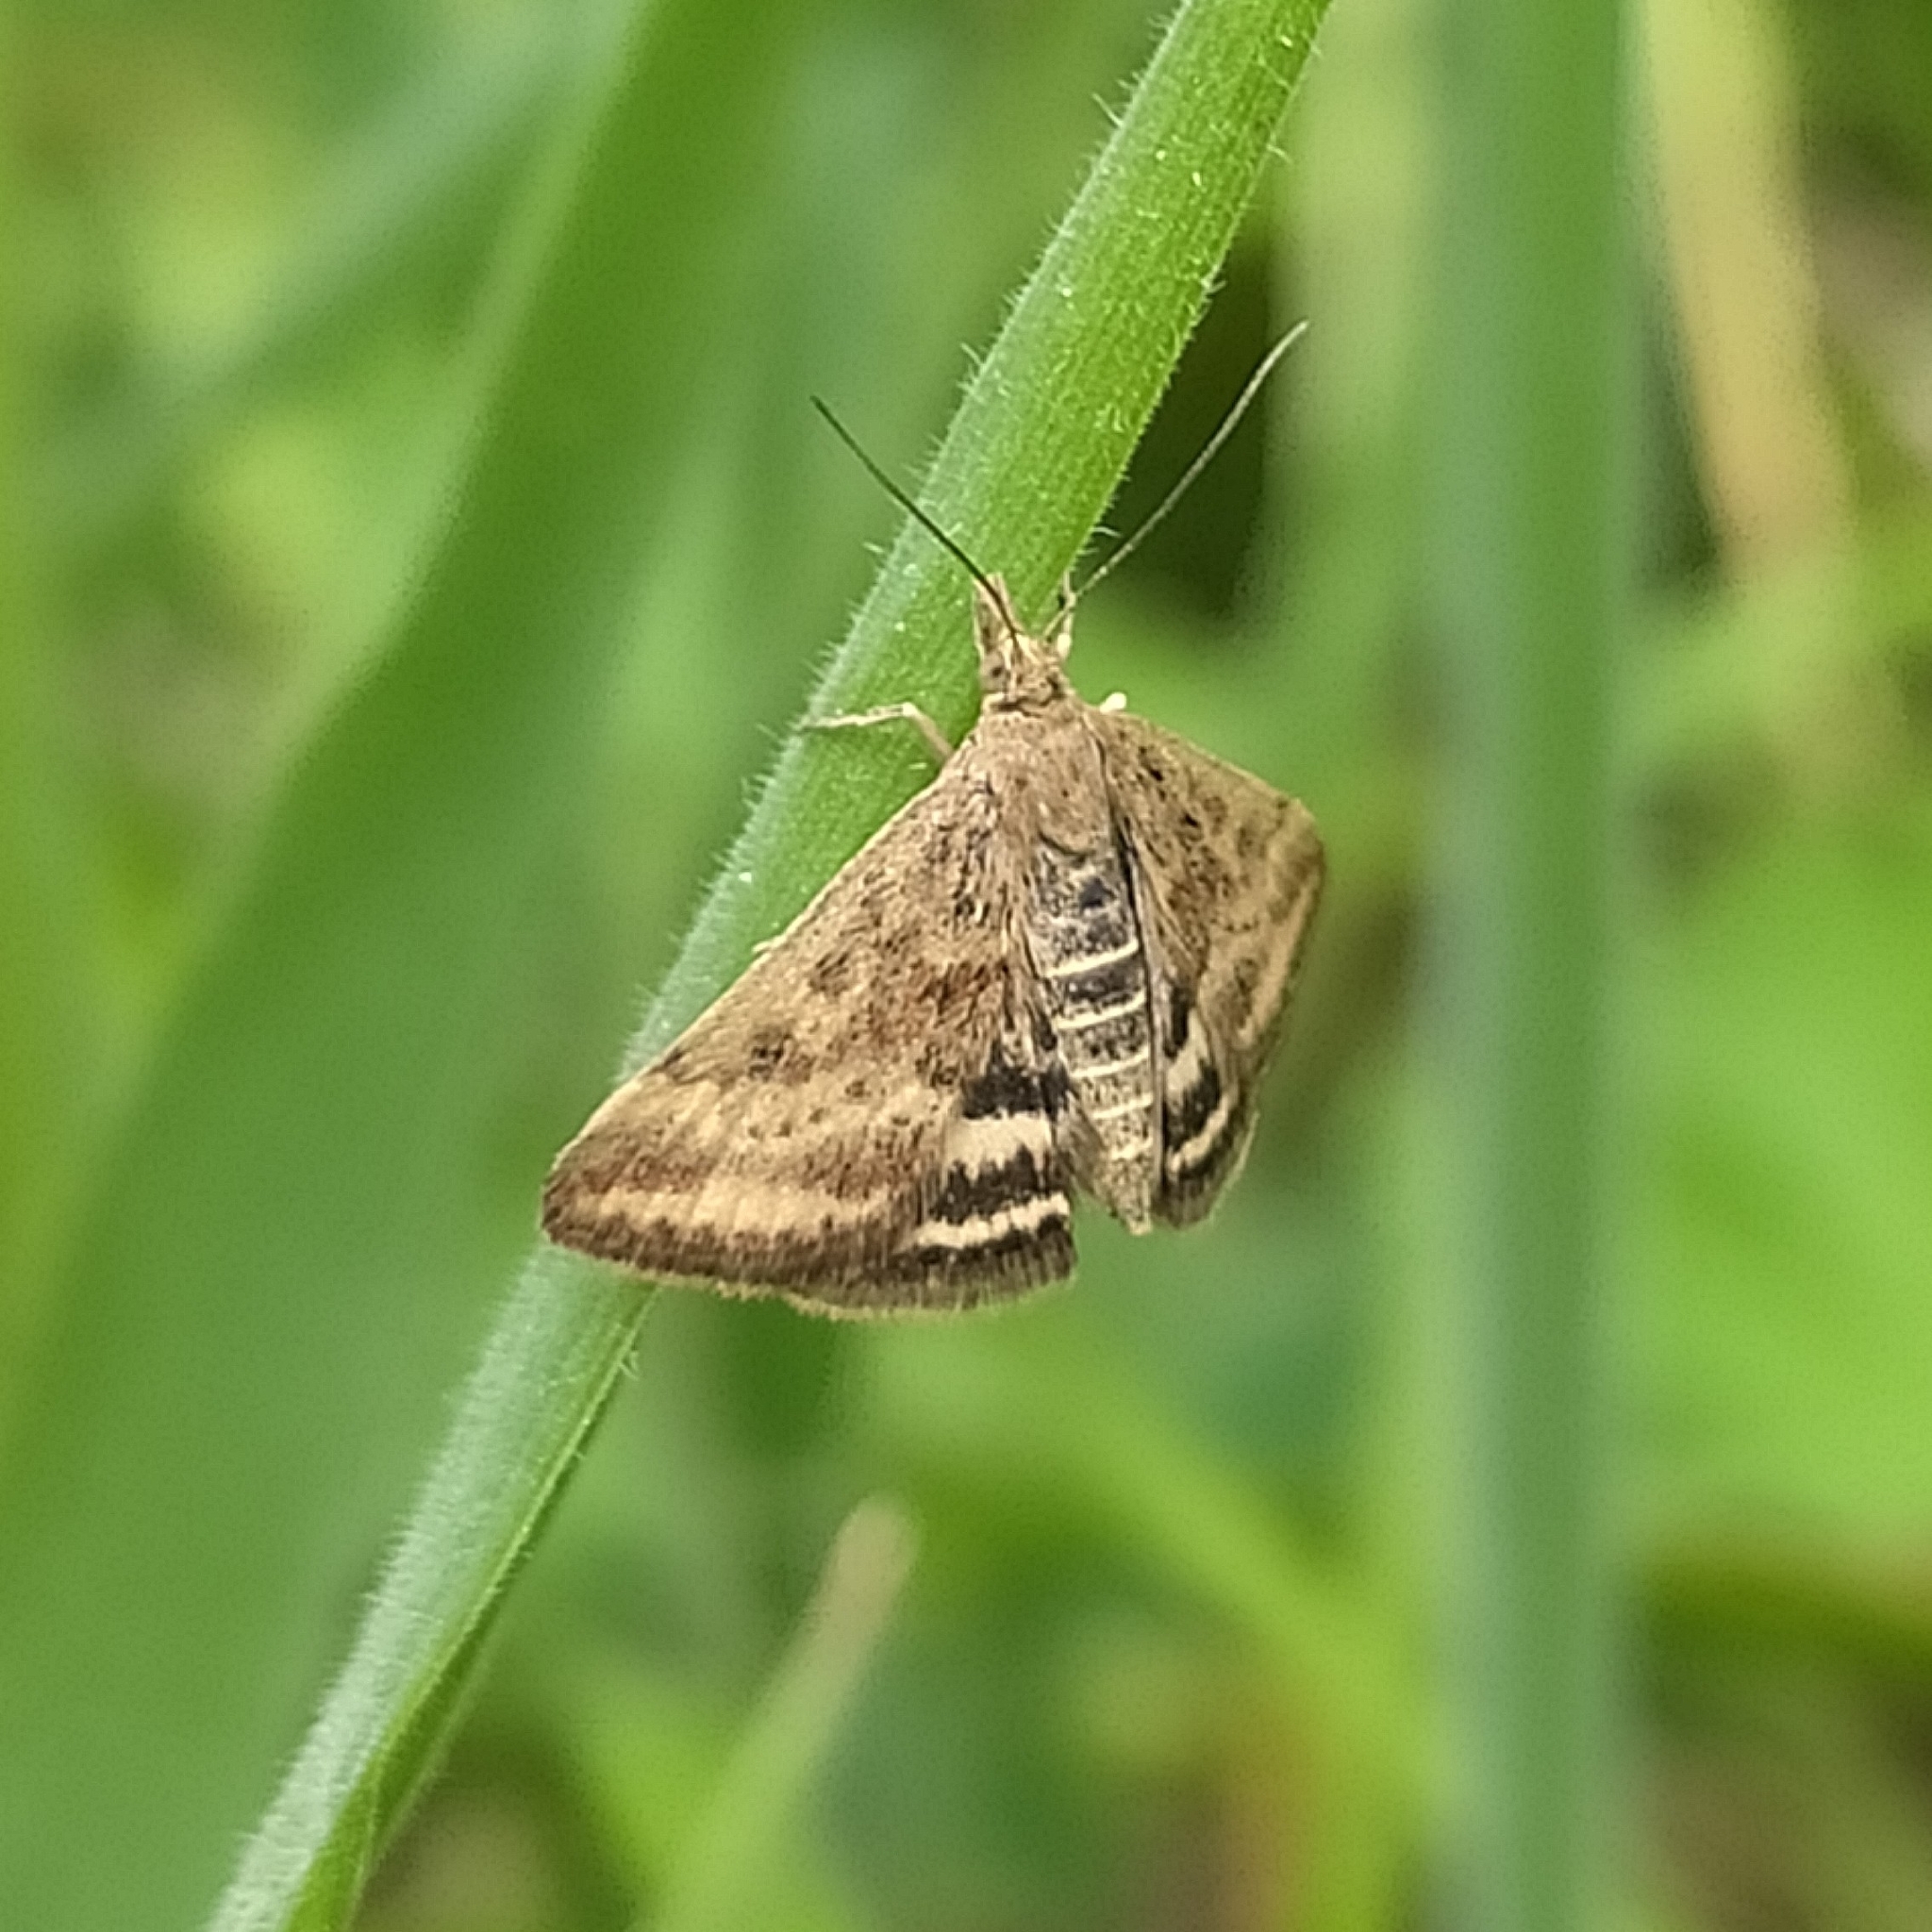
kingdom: Animalia
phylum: Arthropoda
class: Insecta
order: Lepidoptera
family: Crambidae
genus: Pyrausta
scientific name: Pyrausta despicata
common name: Straw-barred pearl
